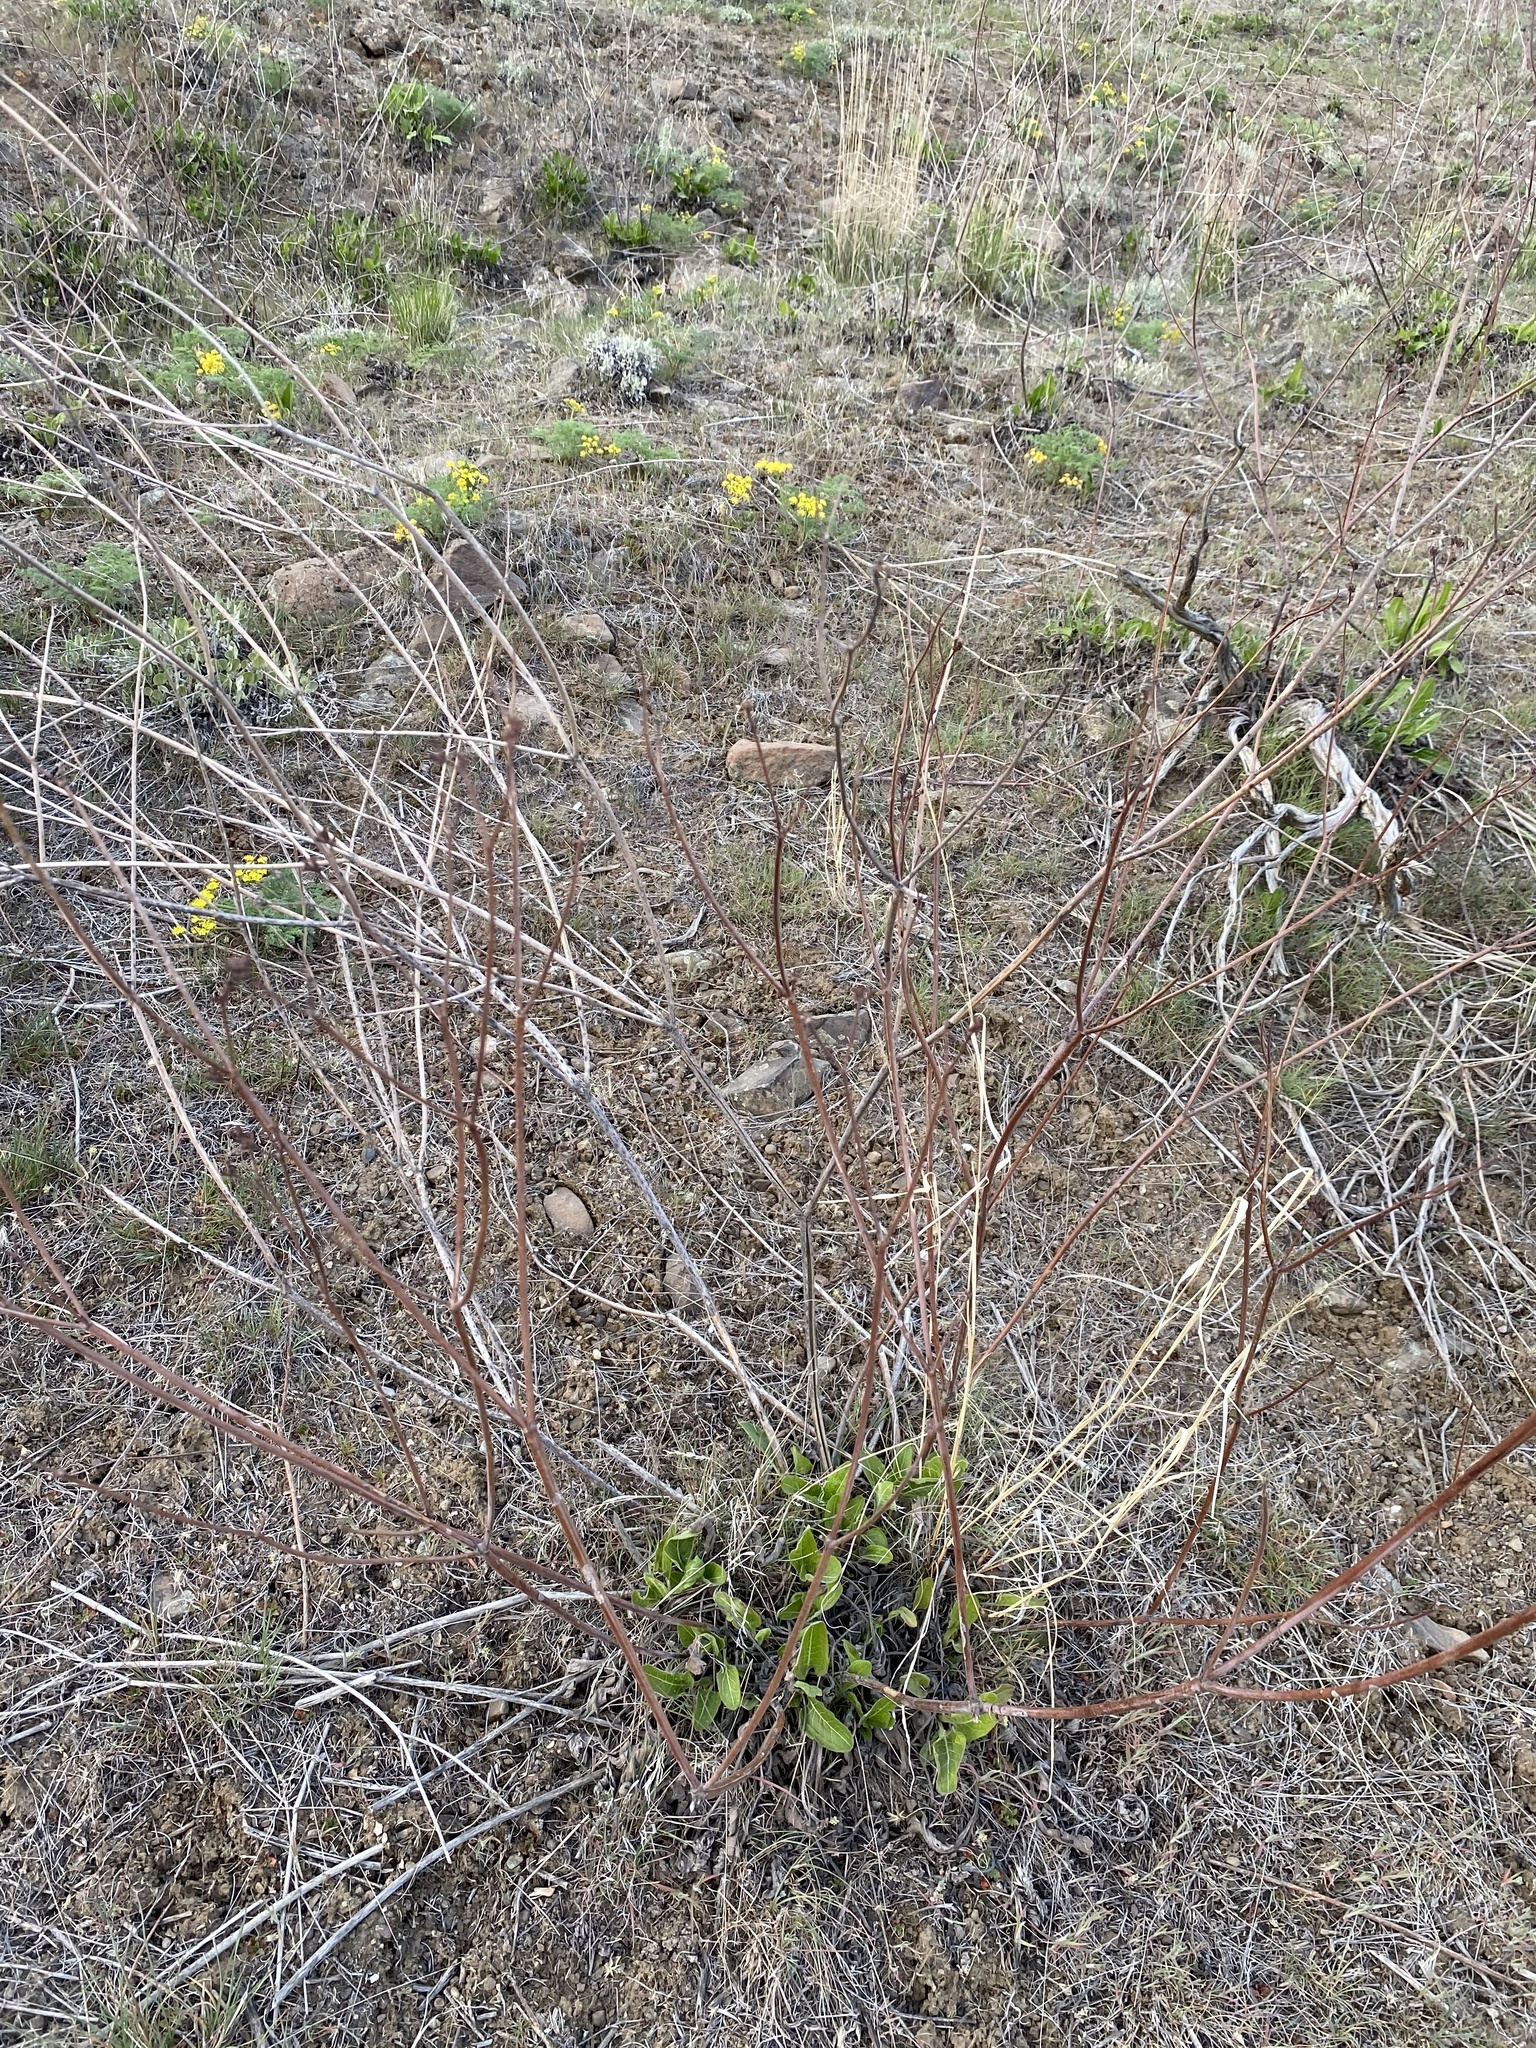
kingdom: Plantae
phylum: Tracheophyta
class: Magnoliopsida
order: Caryophyllales
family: Polygonaceae
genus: Eriogonum
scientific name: Eriogonum elatum
